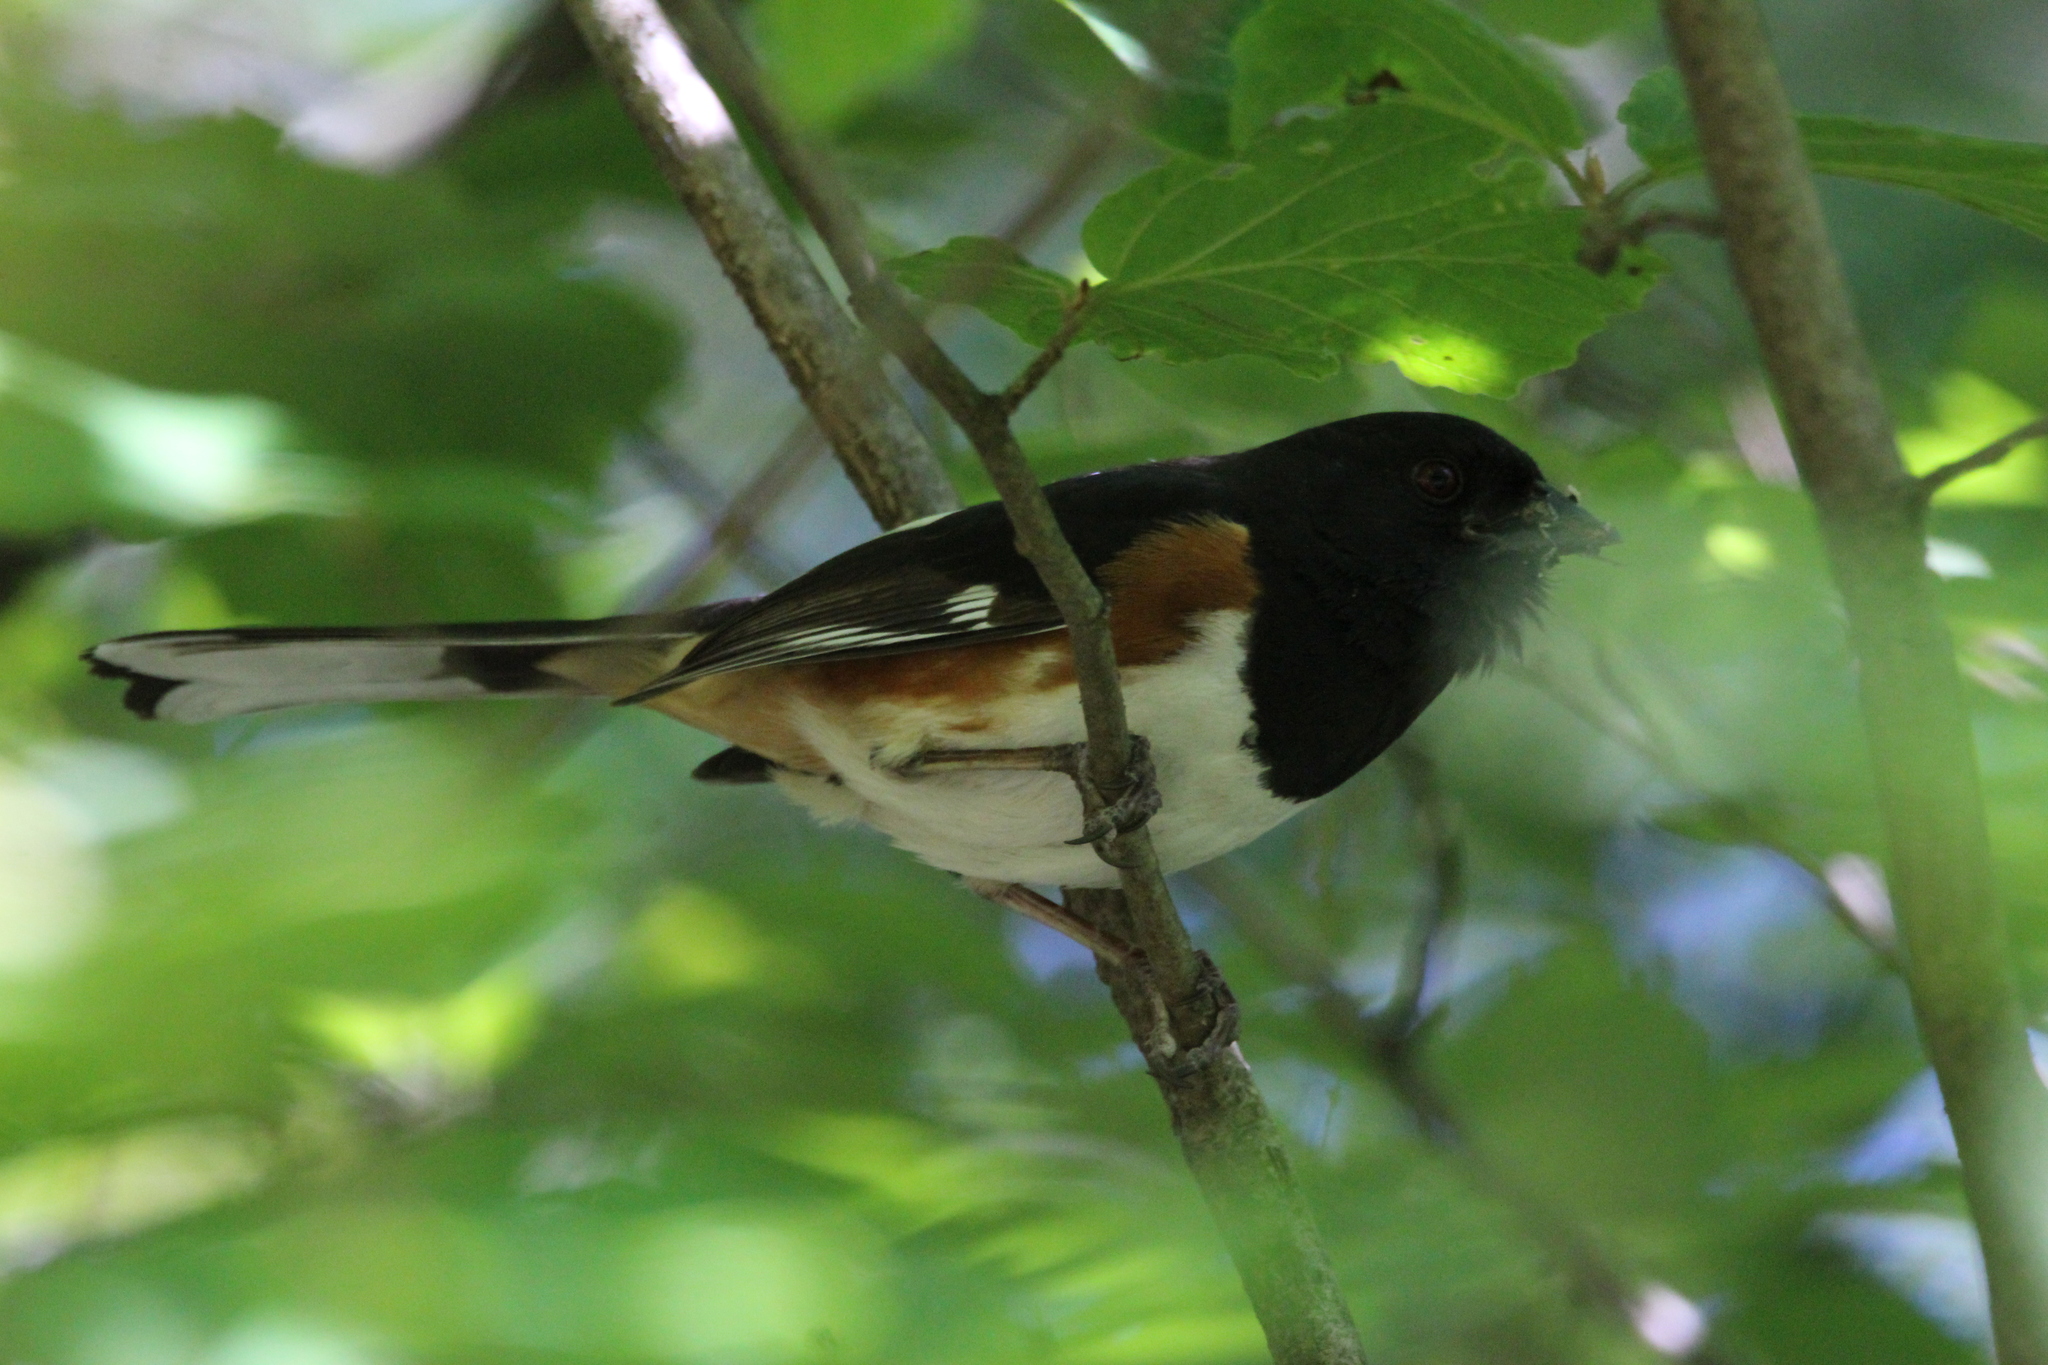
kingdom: Animalia
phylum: Chordata
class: Aves
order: Passeriformes
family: Passerellidae
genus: Pipilo
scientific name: Pipilo erythrophthalmus
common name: Eastern towhee
